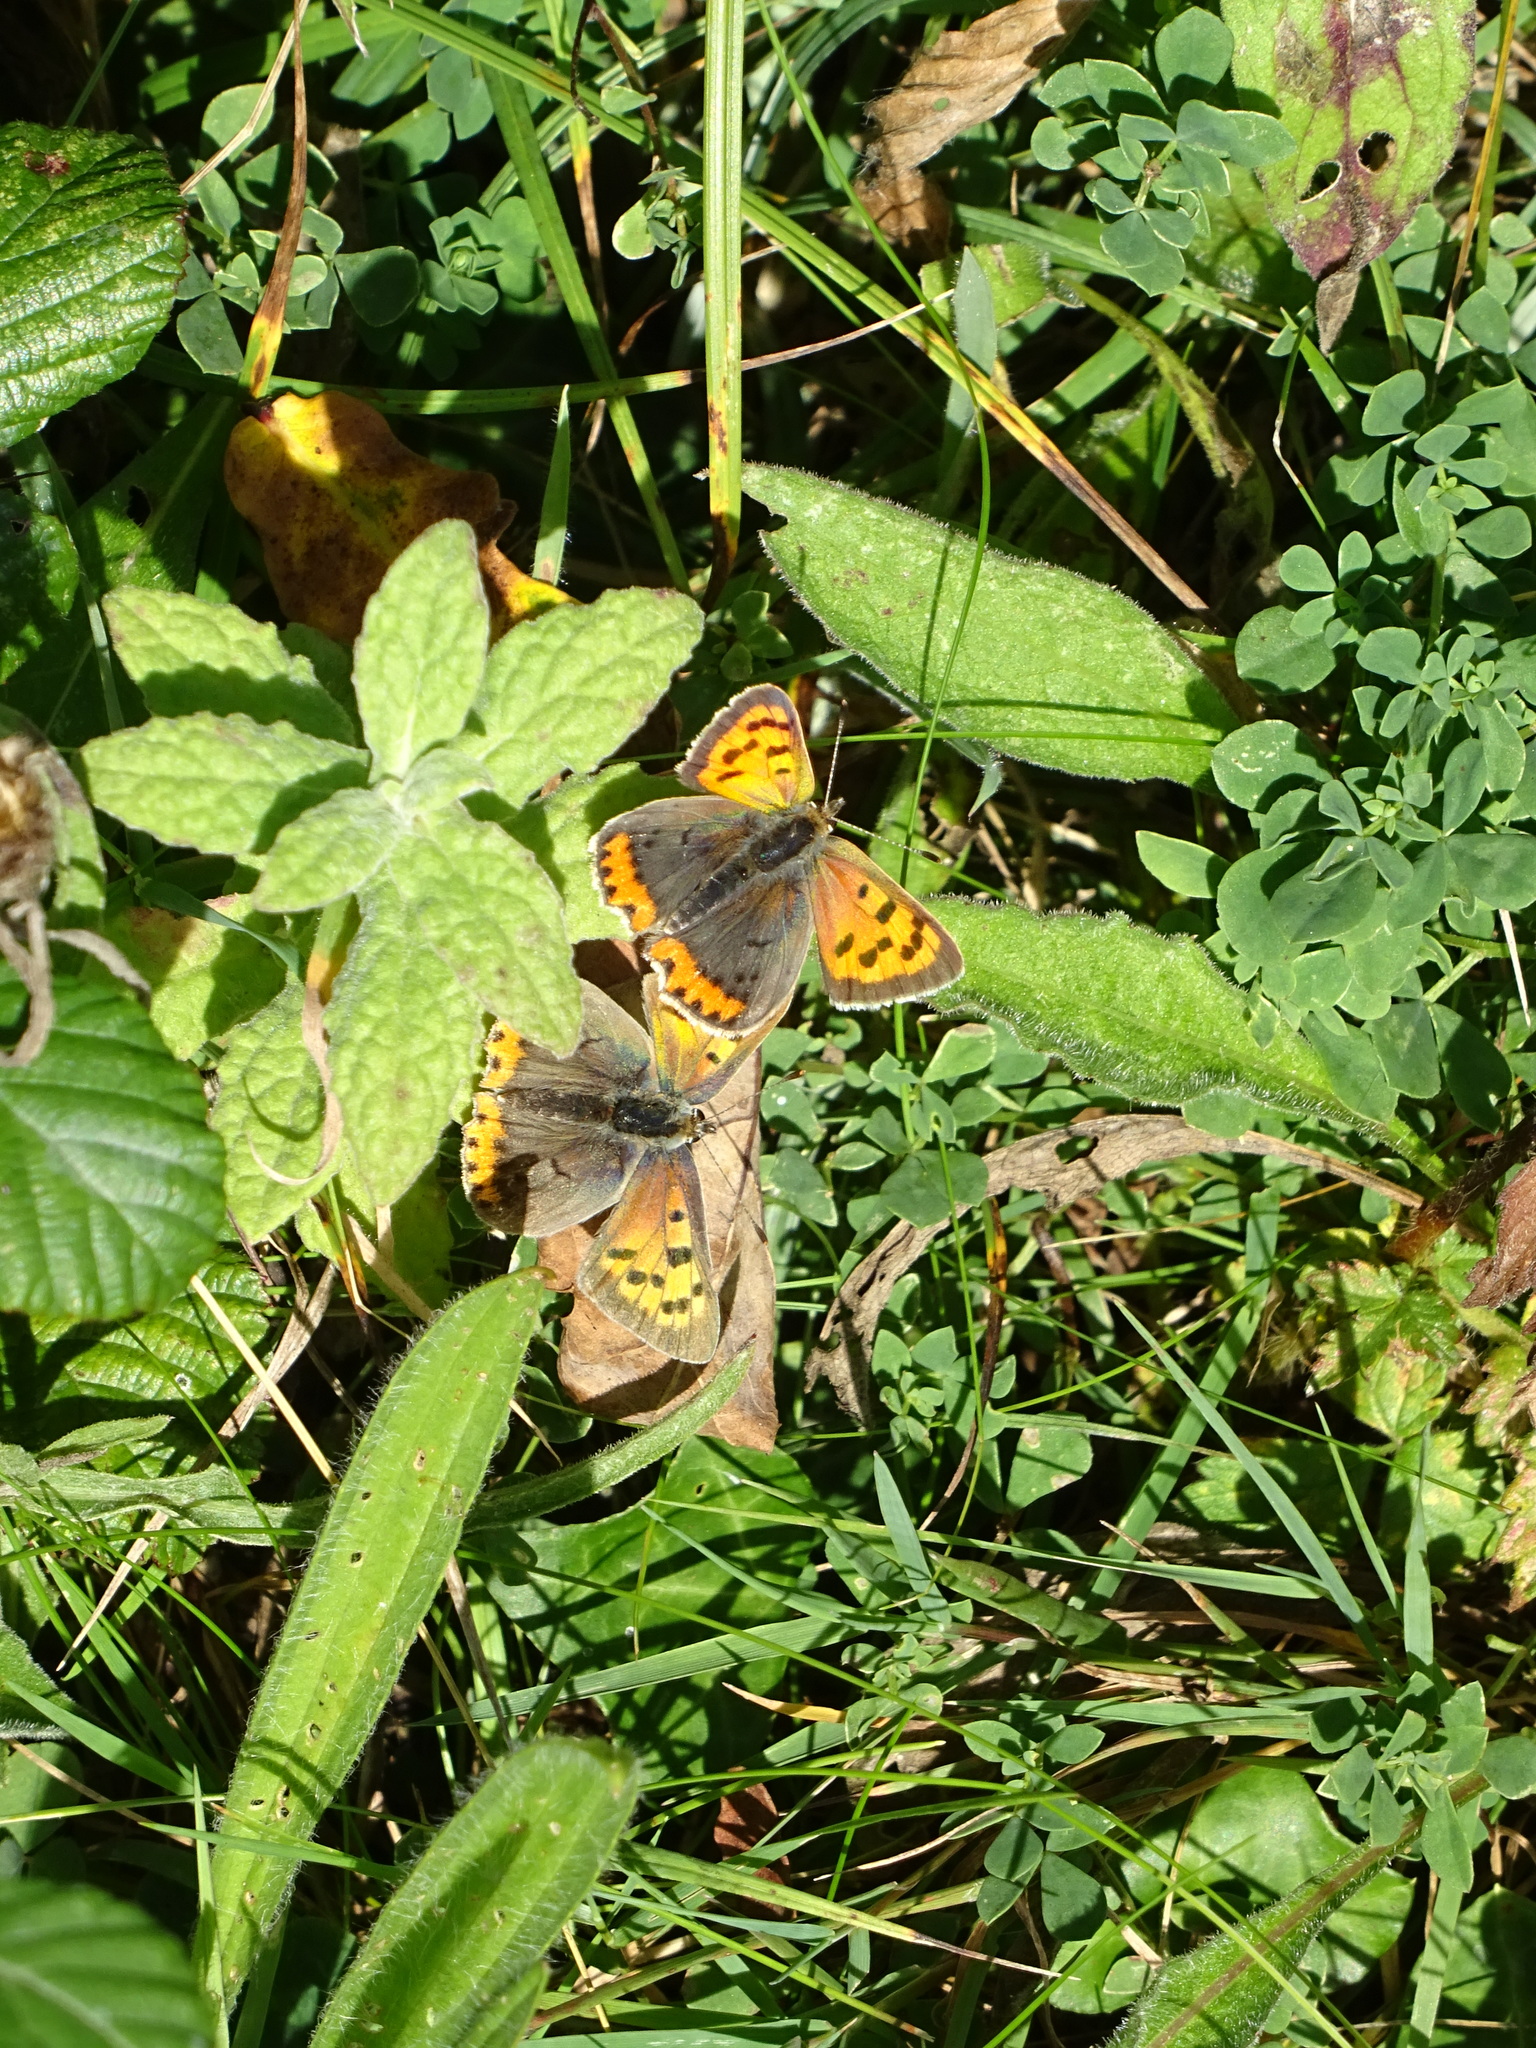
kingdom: Animalia
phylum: Arthropoda
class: Insecta
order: Lepidoptera
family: Lycaenidae
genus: Lycaena
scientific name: Lycaena phlaeas
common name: Small copper
